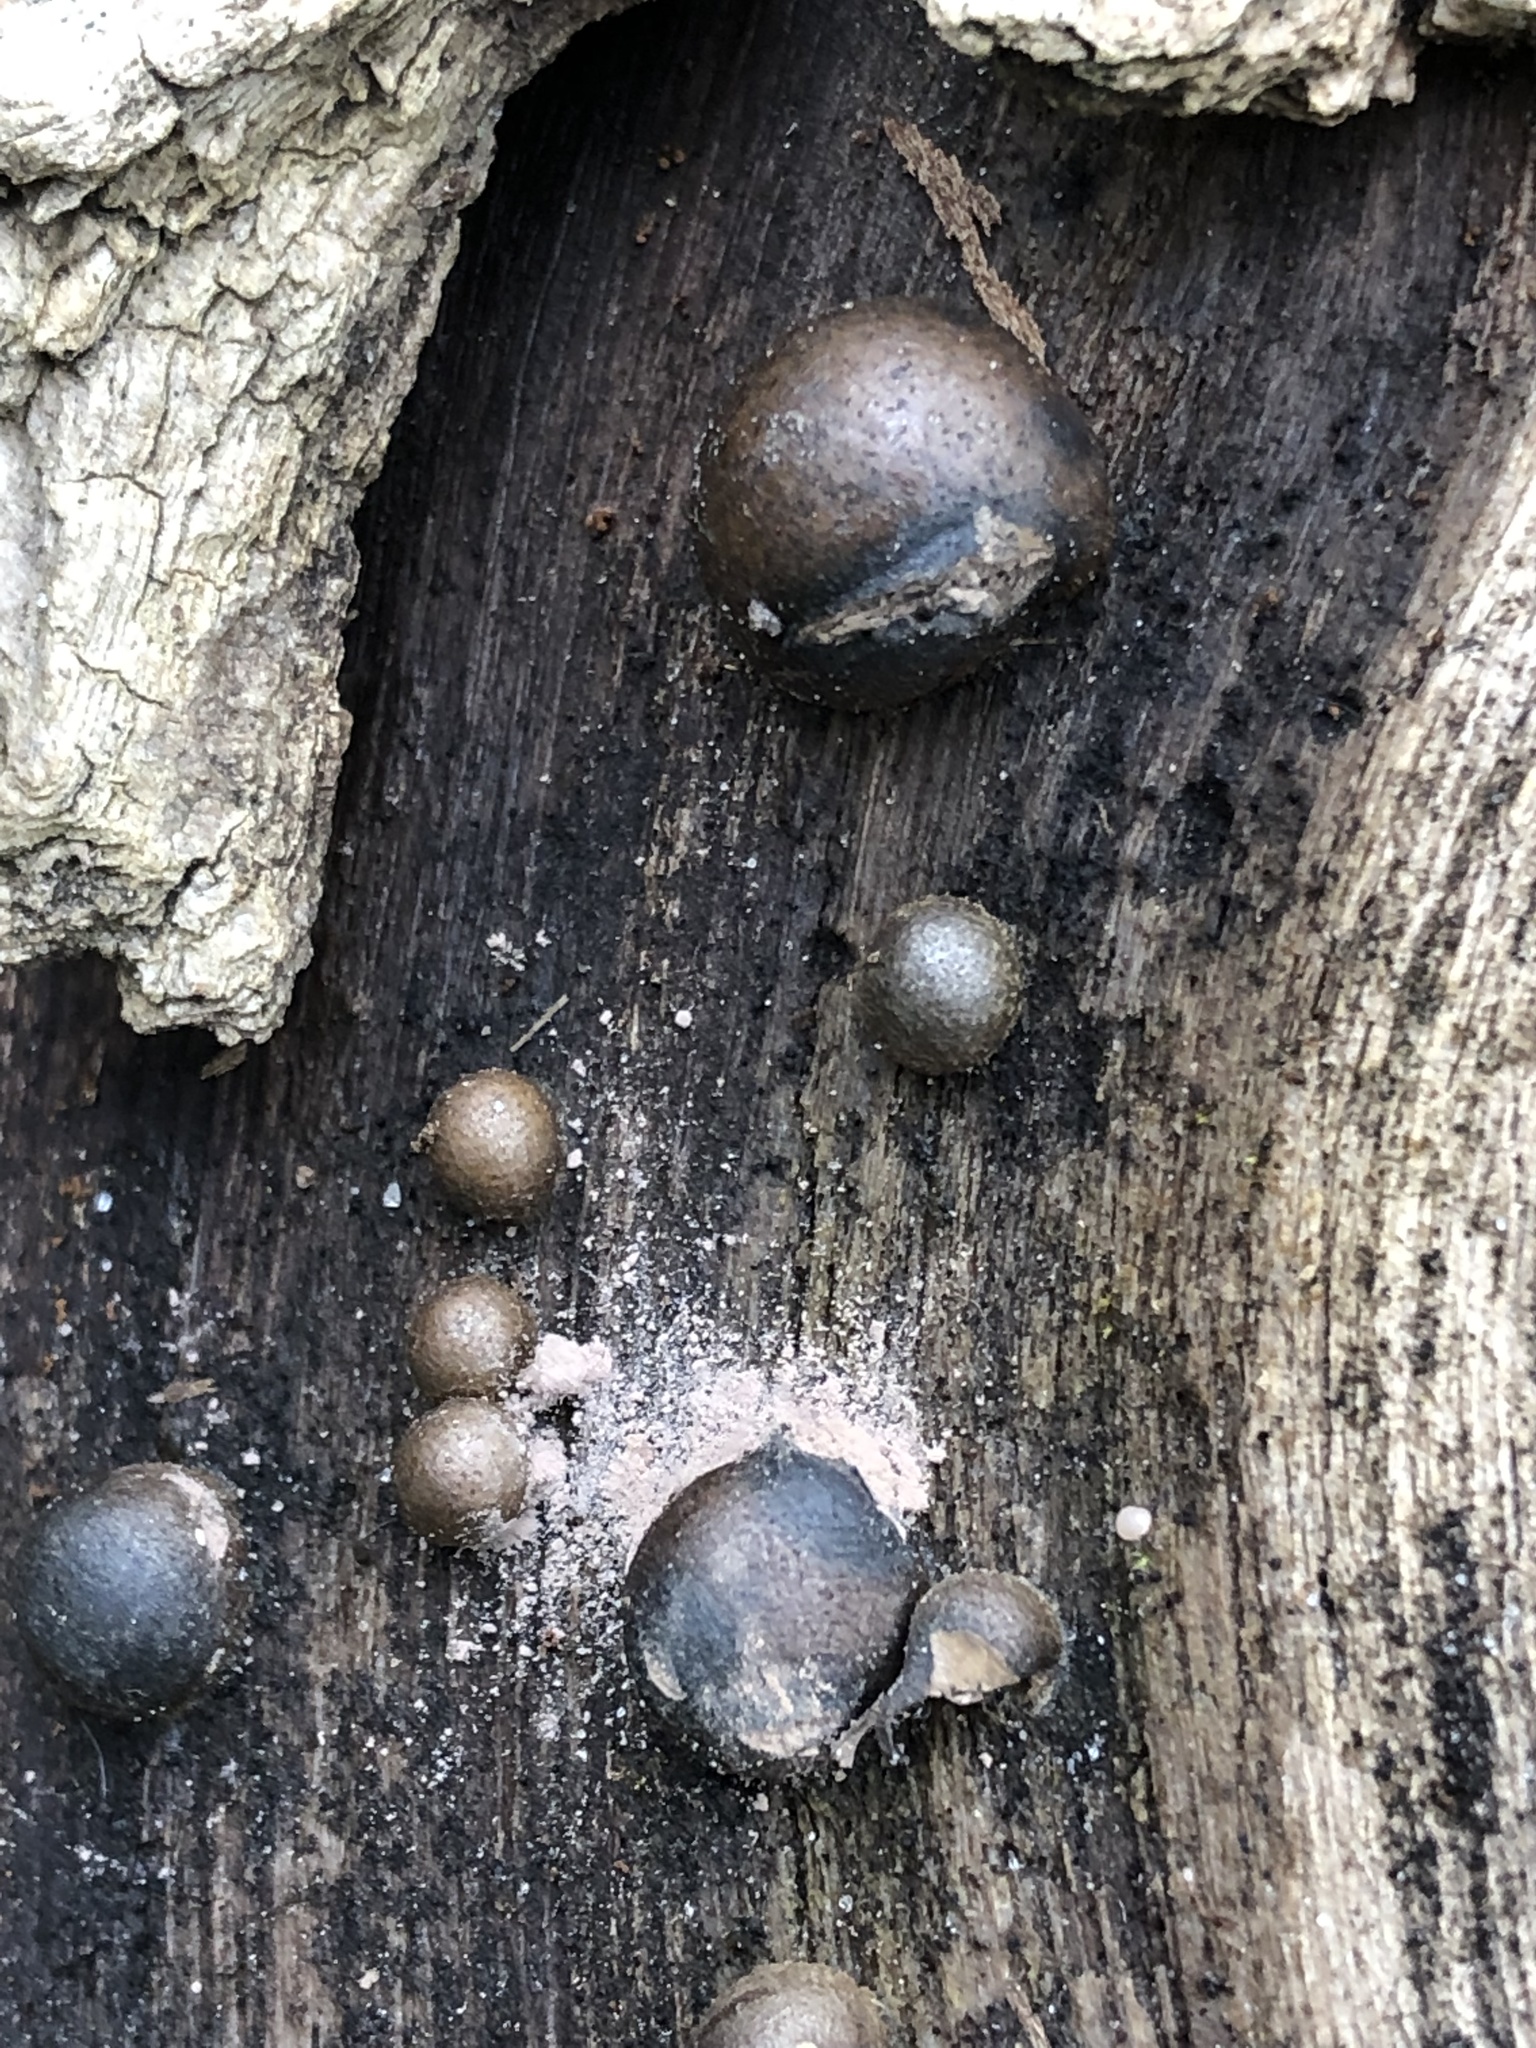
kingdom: Protozoa
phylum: Mycetozoa
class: Myxomycetes
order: Cribrariales
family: Tubiferaceae
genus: Lycogala
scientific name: Lycogala epidendrum
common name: Wolf's milk
